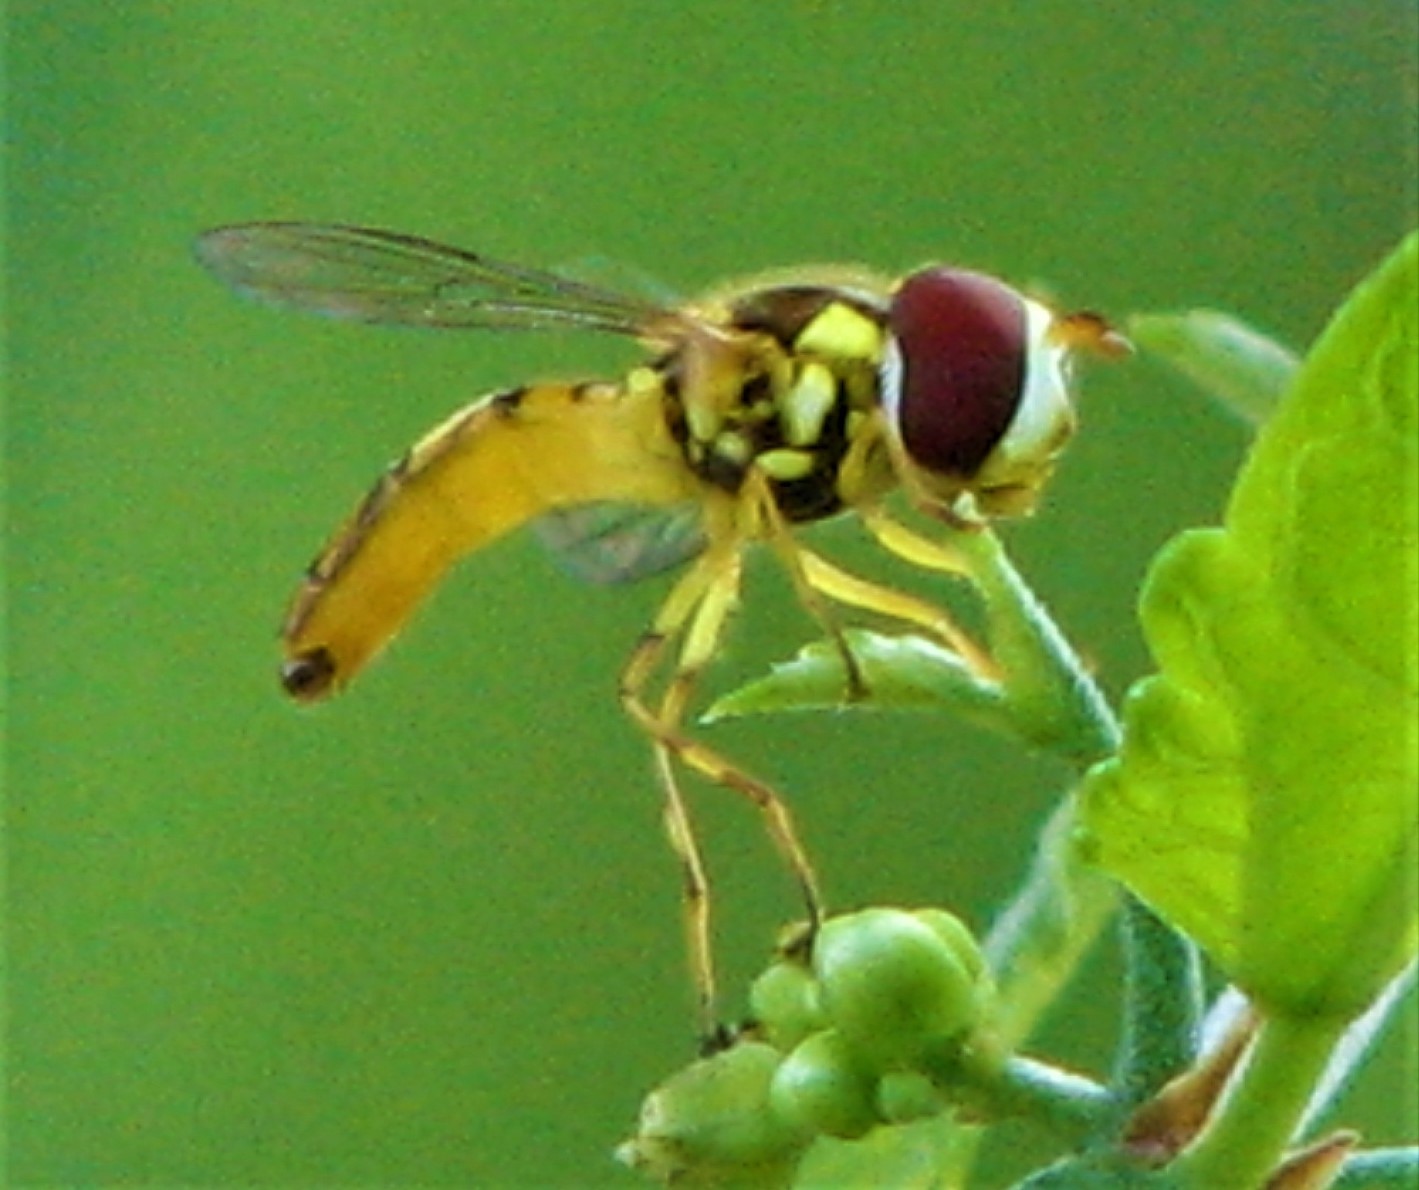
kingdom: Animalia
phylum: Arthropoda
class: Insecta
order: Diptera
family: Syrphidae
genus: Allograpta
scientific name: Allograpta obliqua
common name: Common oblique syrphid
